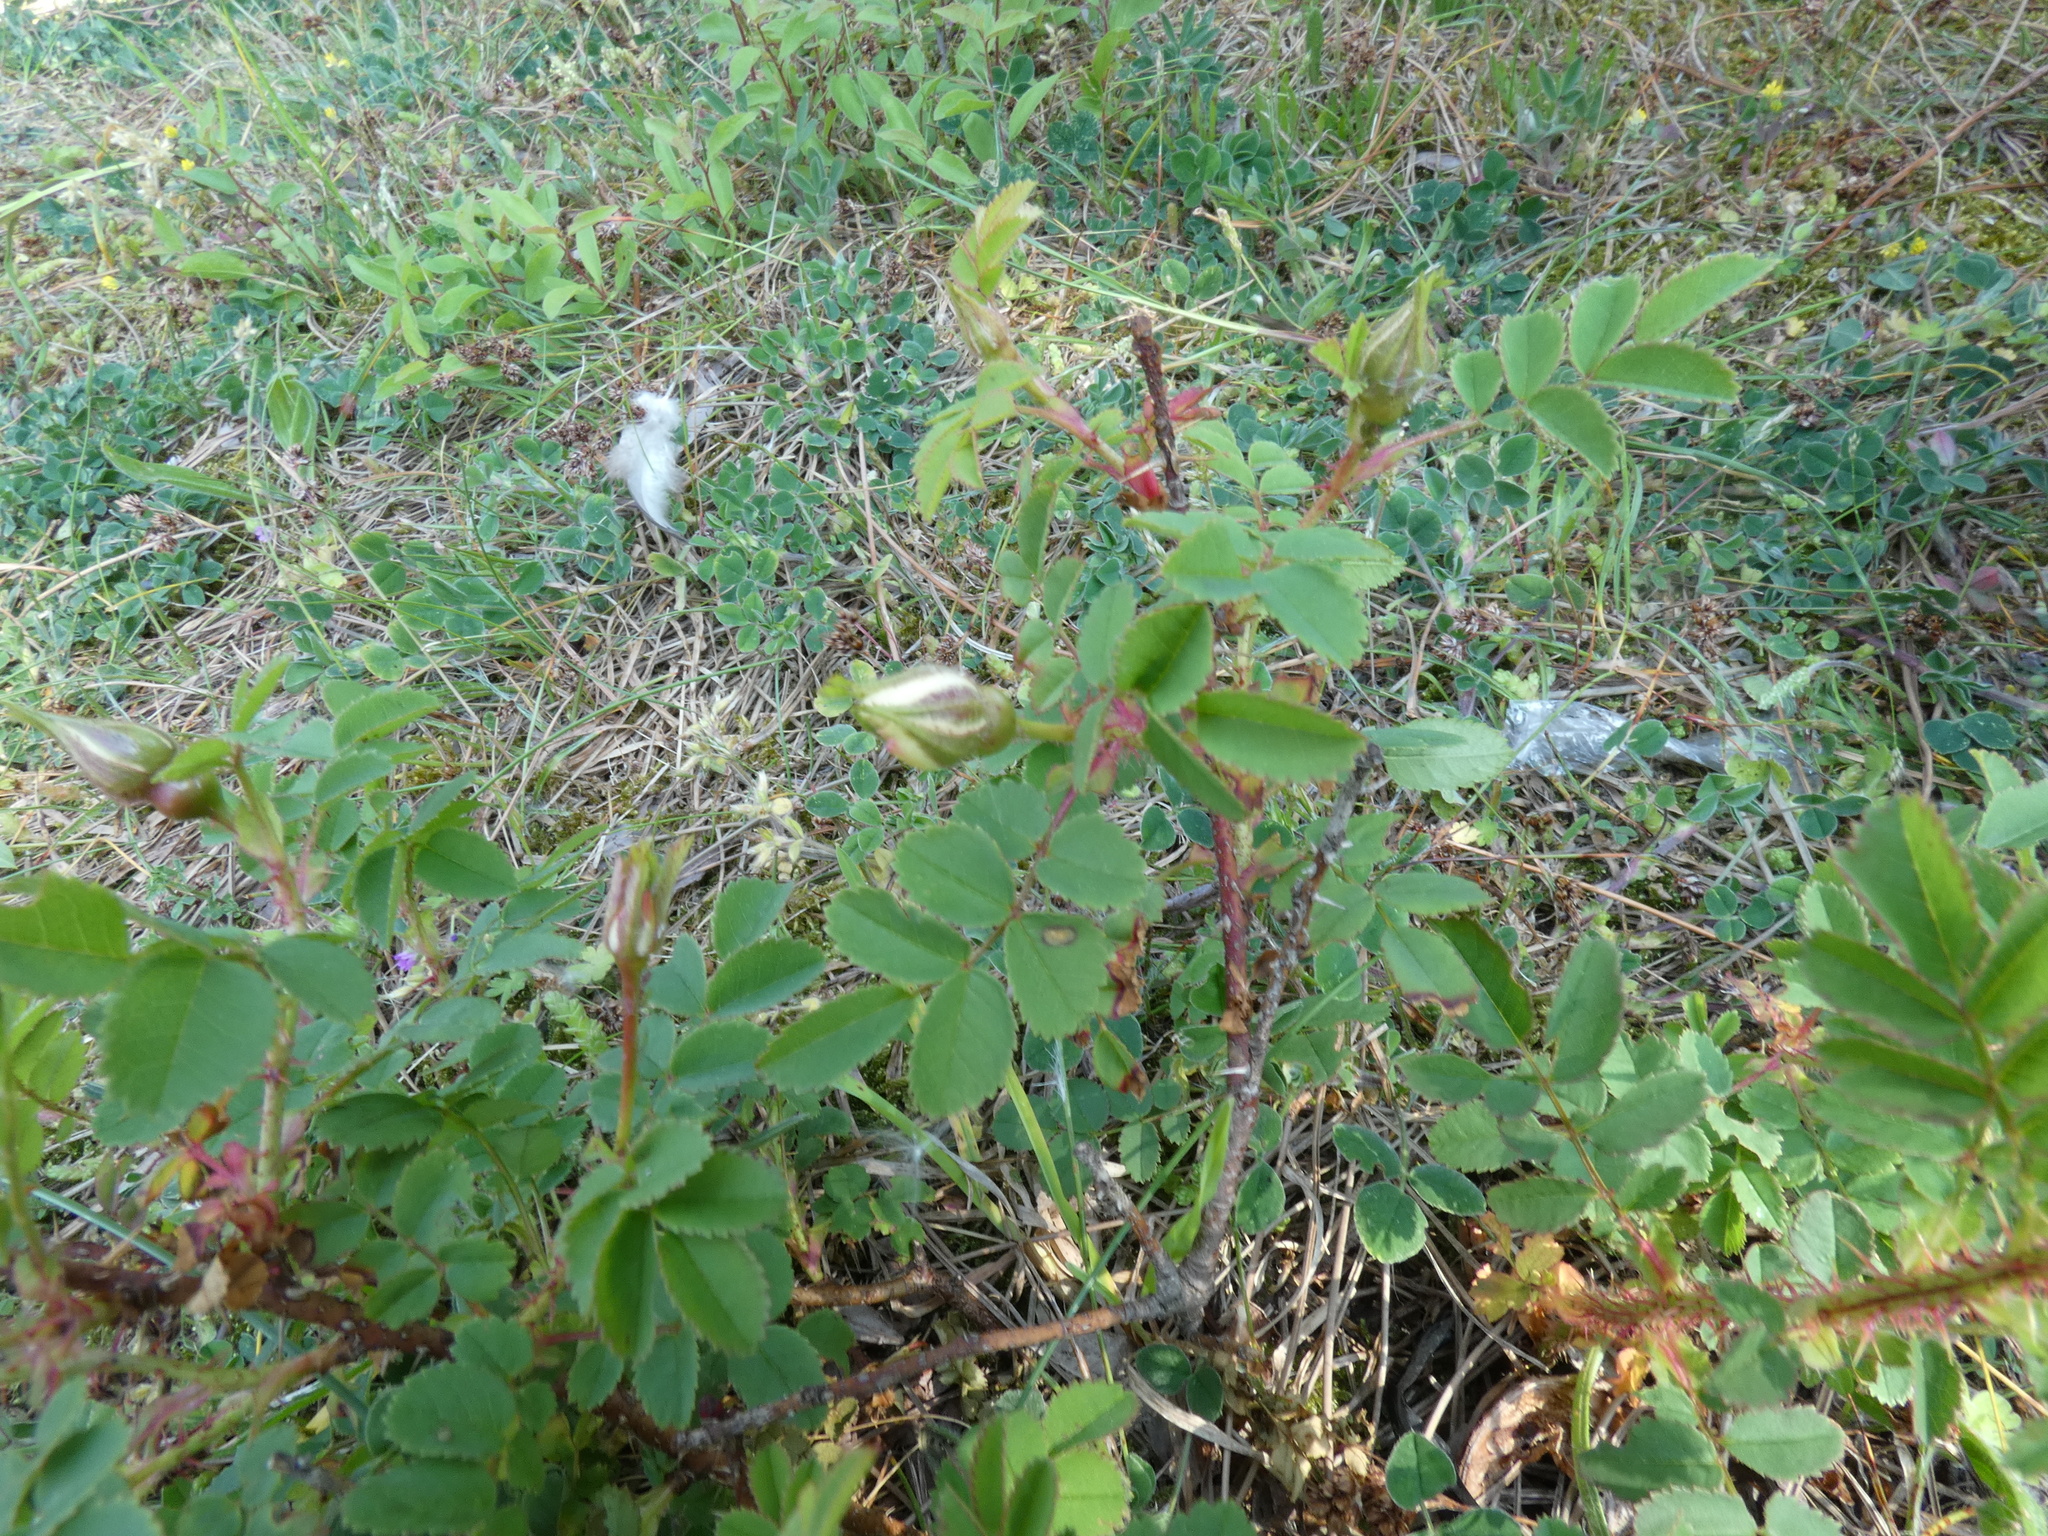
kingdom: Plantae
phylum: Tracheophyta
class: Magnoliopsida
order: Rosales
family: Rosaceae
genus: Rosa
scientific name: Rosa spinosissima
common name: Burnet rose
